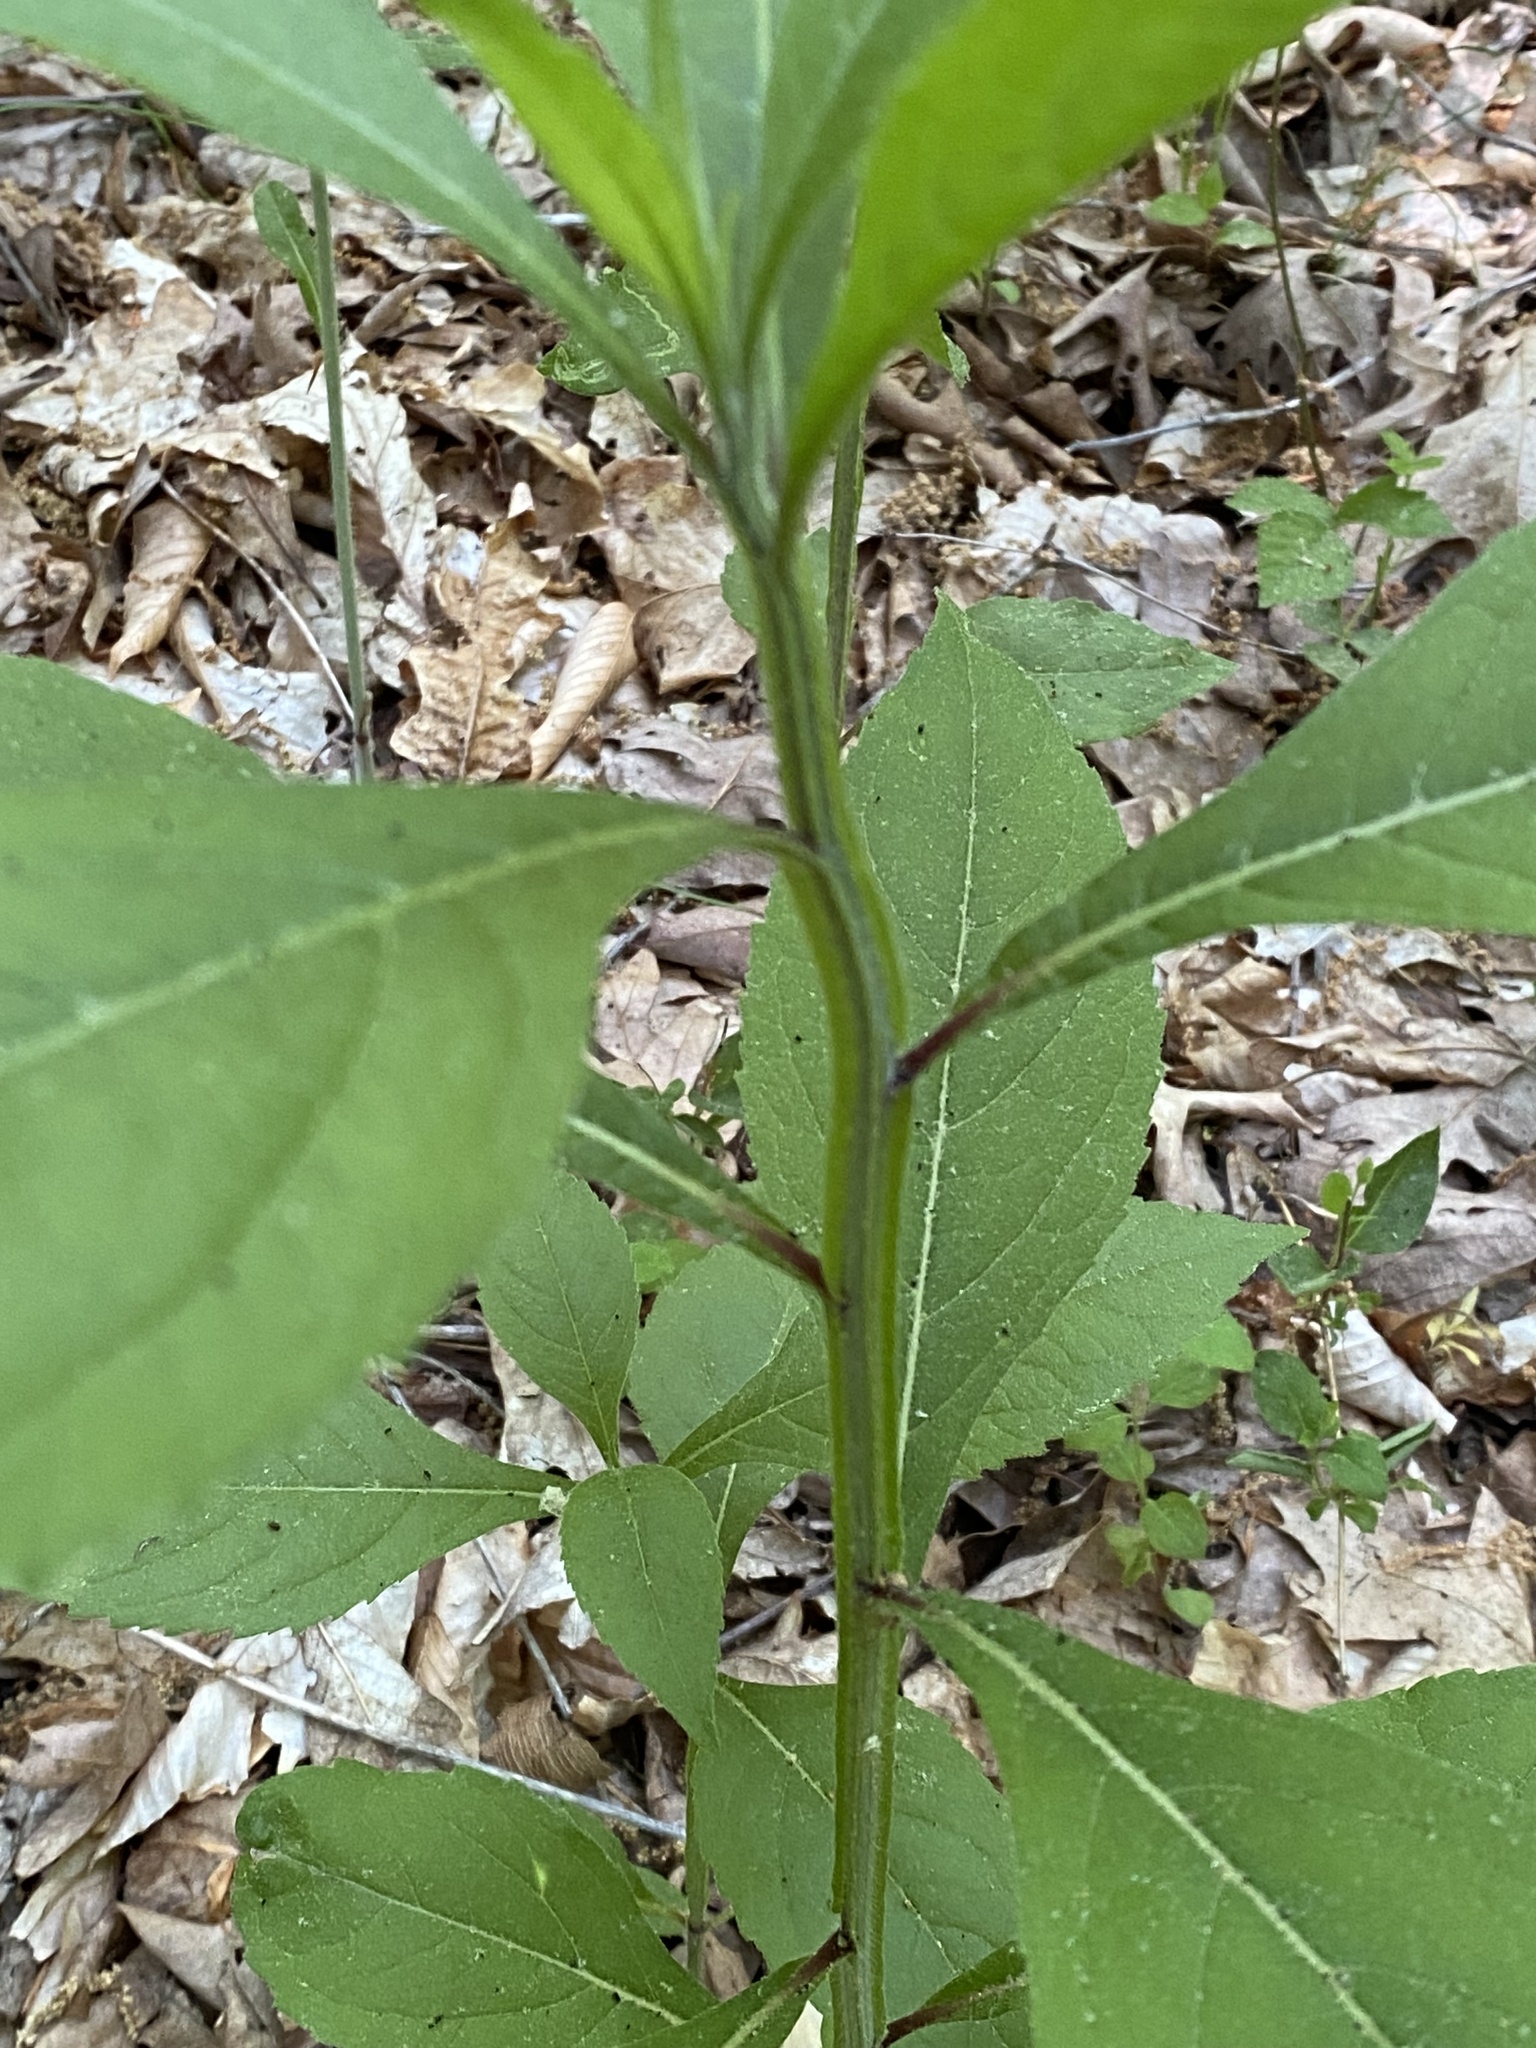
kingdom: Plantae
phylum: Tracheophyta
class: Magnoliopsida
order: Asterales
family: Asteraceae
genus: Verbesina
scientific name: Verbesina alternifolia
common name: Wingstem
